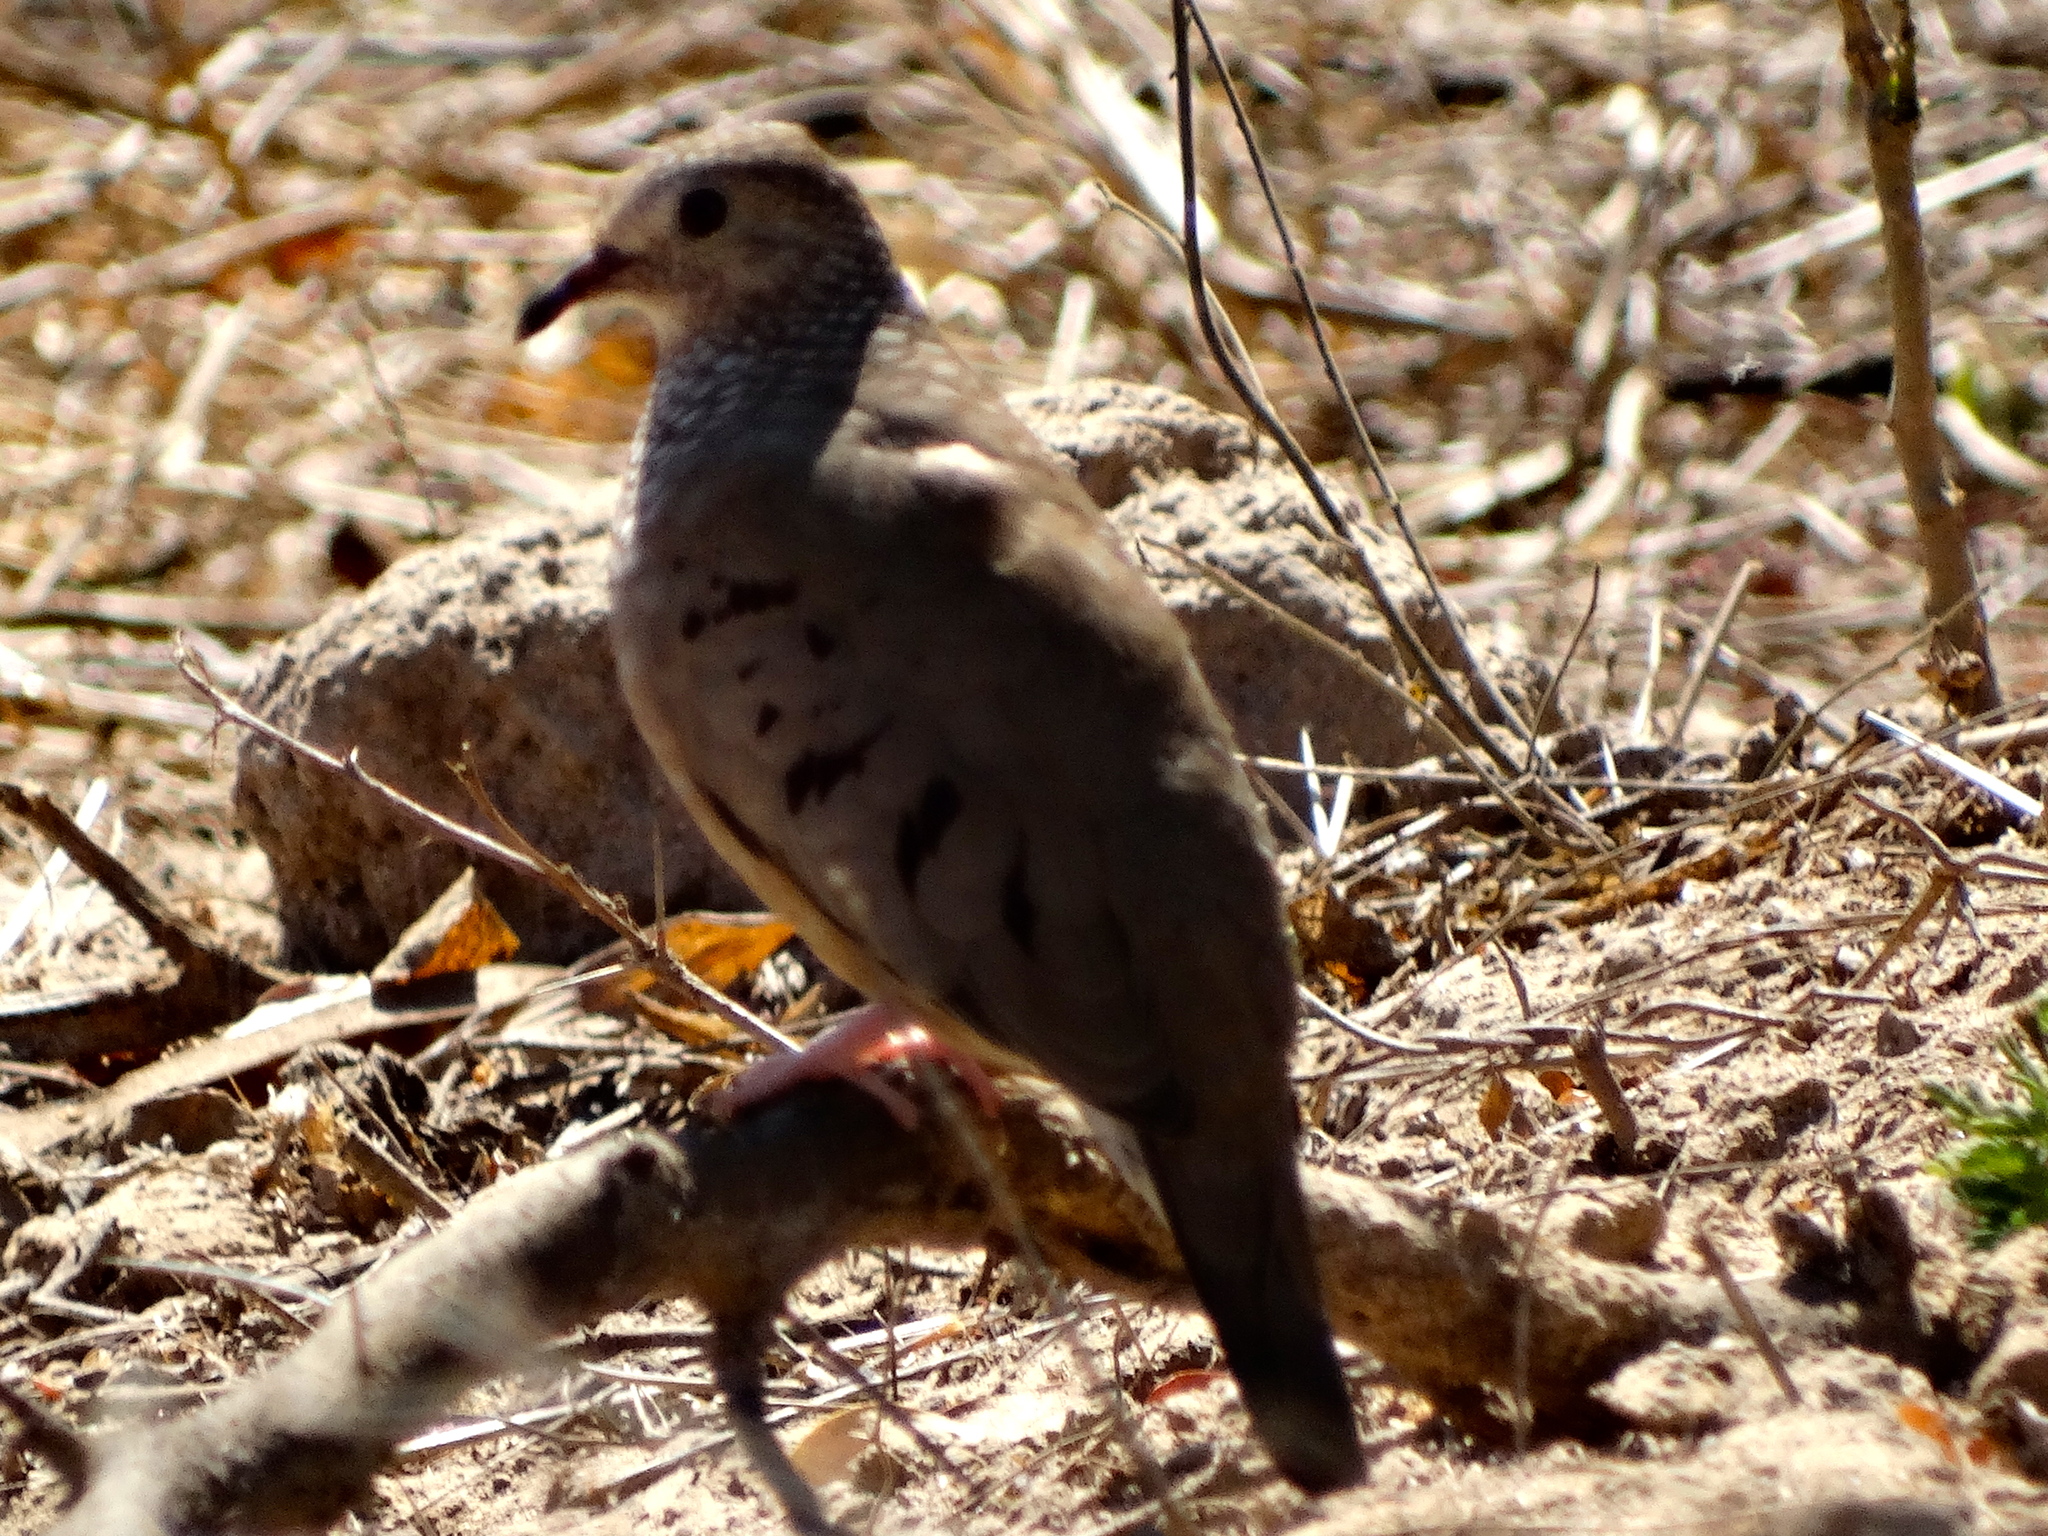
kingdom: Animalia
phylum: Chordata
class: Aves
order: Columbiformes
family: Columbidae
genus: Columbina
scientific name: Columbina passerina
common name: Common ground-dove
